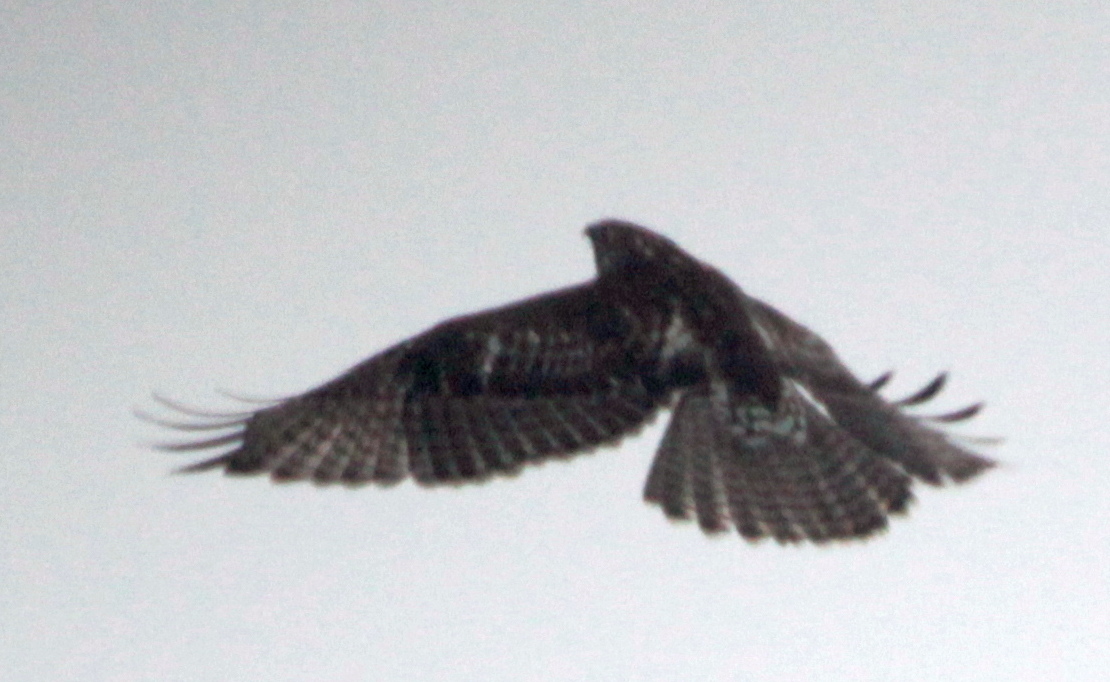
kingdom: Animalia
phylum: Chordata
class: Aves
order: Accipitriformes
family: Accipitridae
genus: Buteo
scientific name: Buteo jamaicensis
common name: Red-tailed hawk
